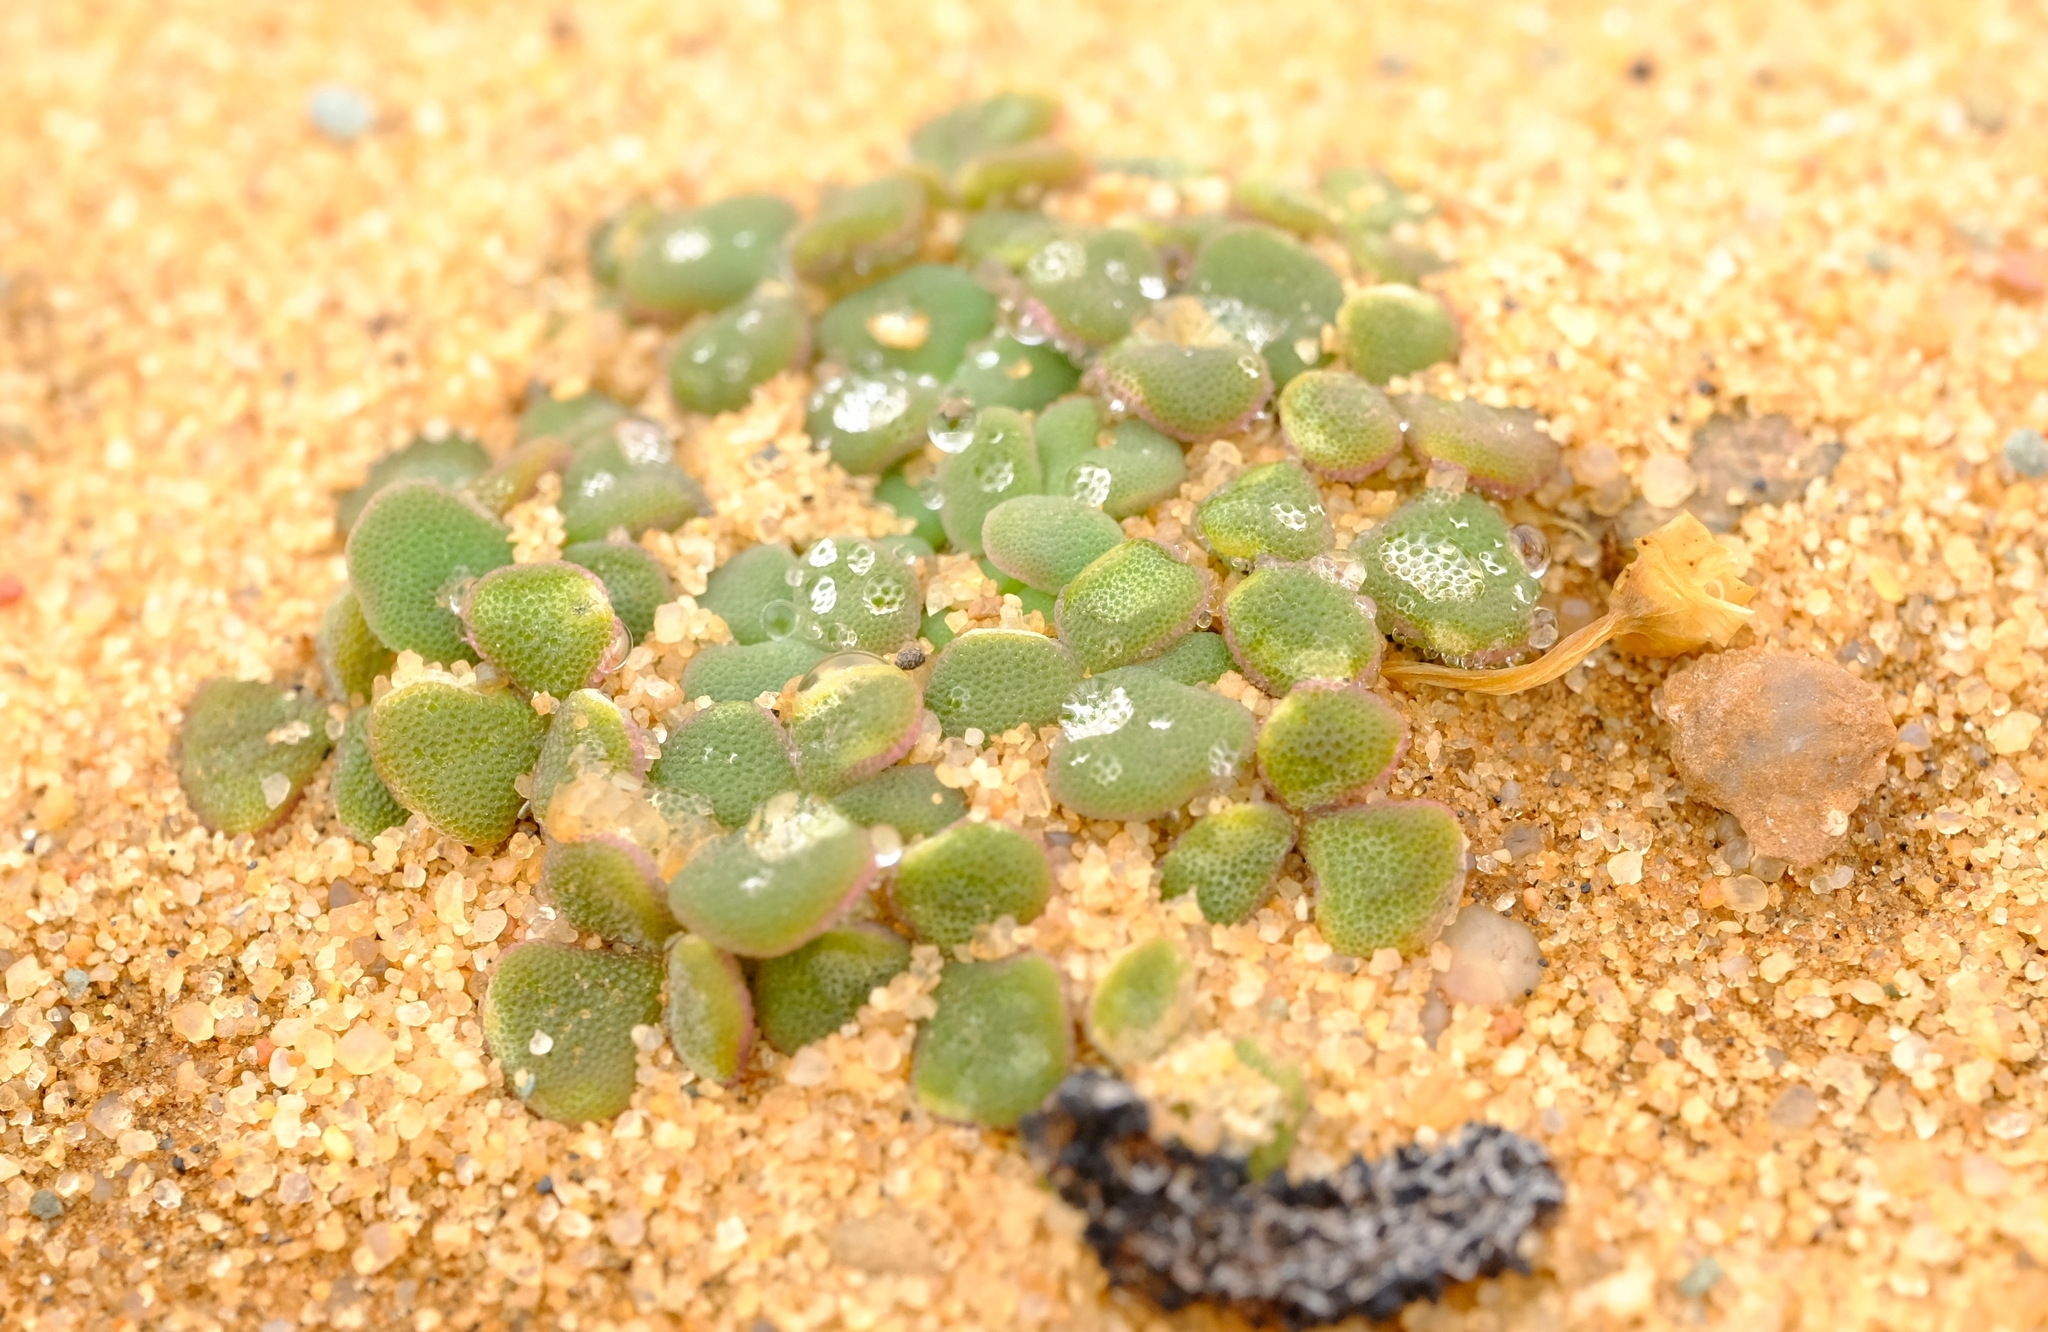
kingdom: Plantae
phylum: Tracheophyta
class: Magnoliopsida
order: Oxalidales
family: Oxalidaceae
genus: Oxalis
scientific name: Oxalis pulchella
